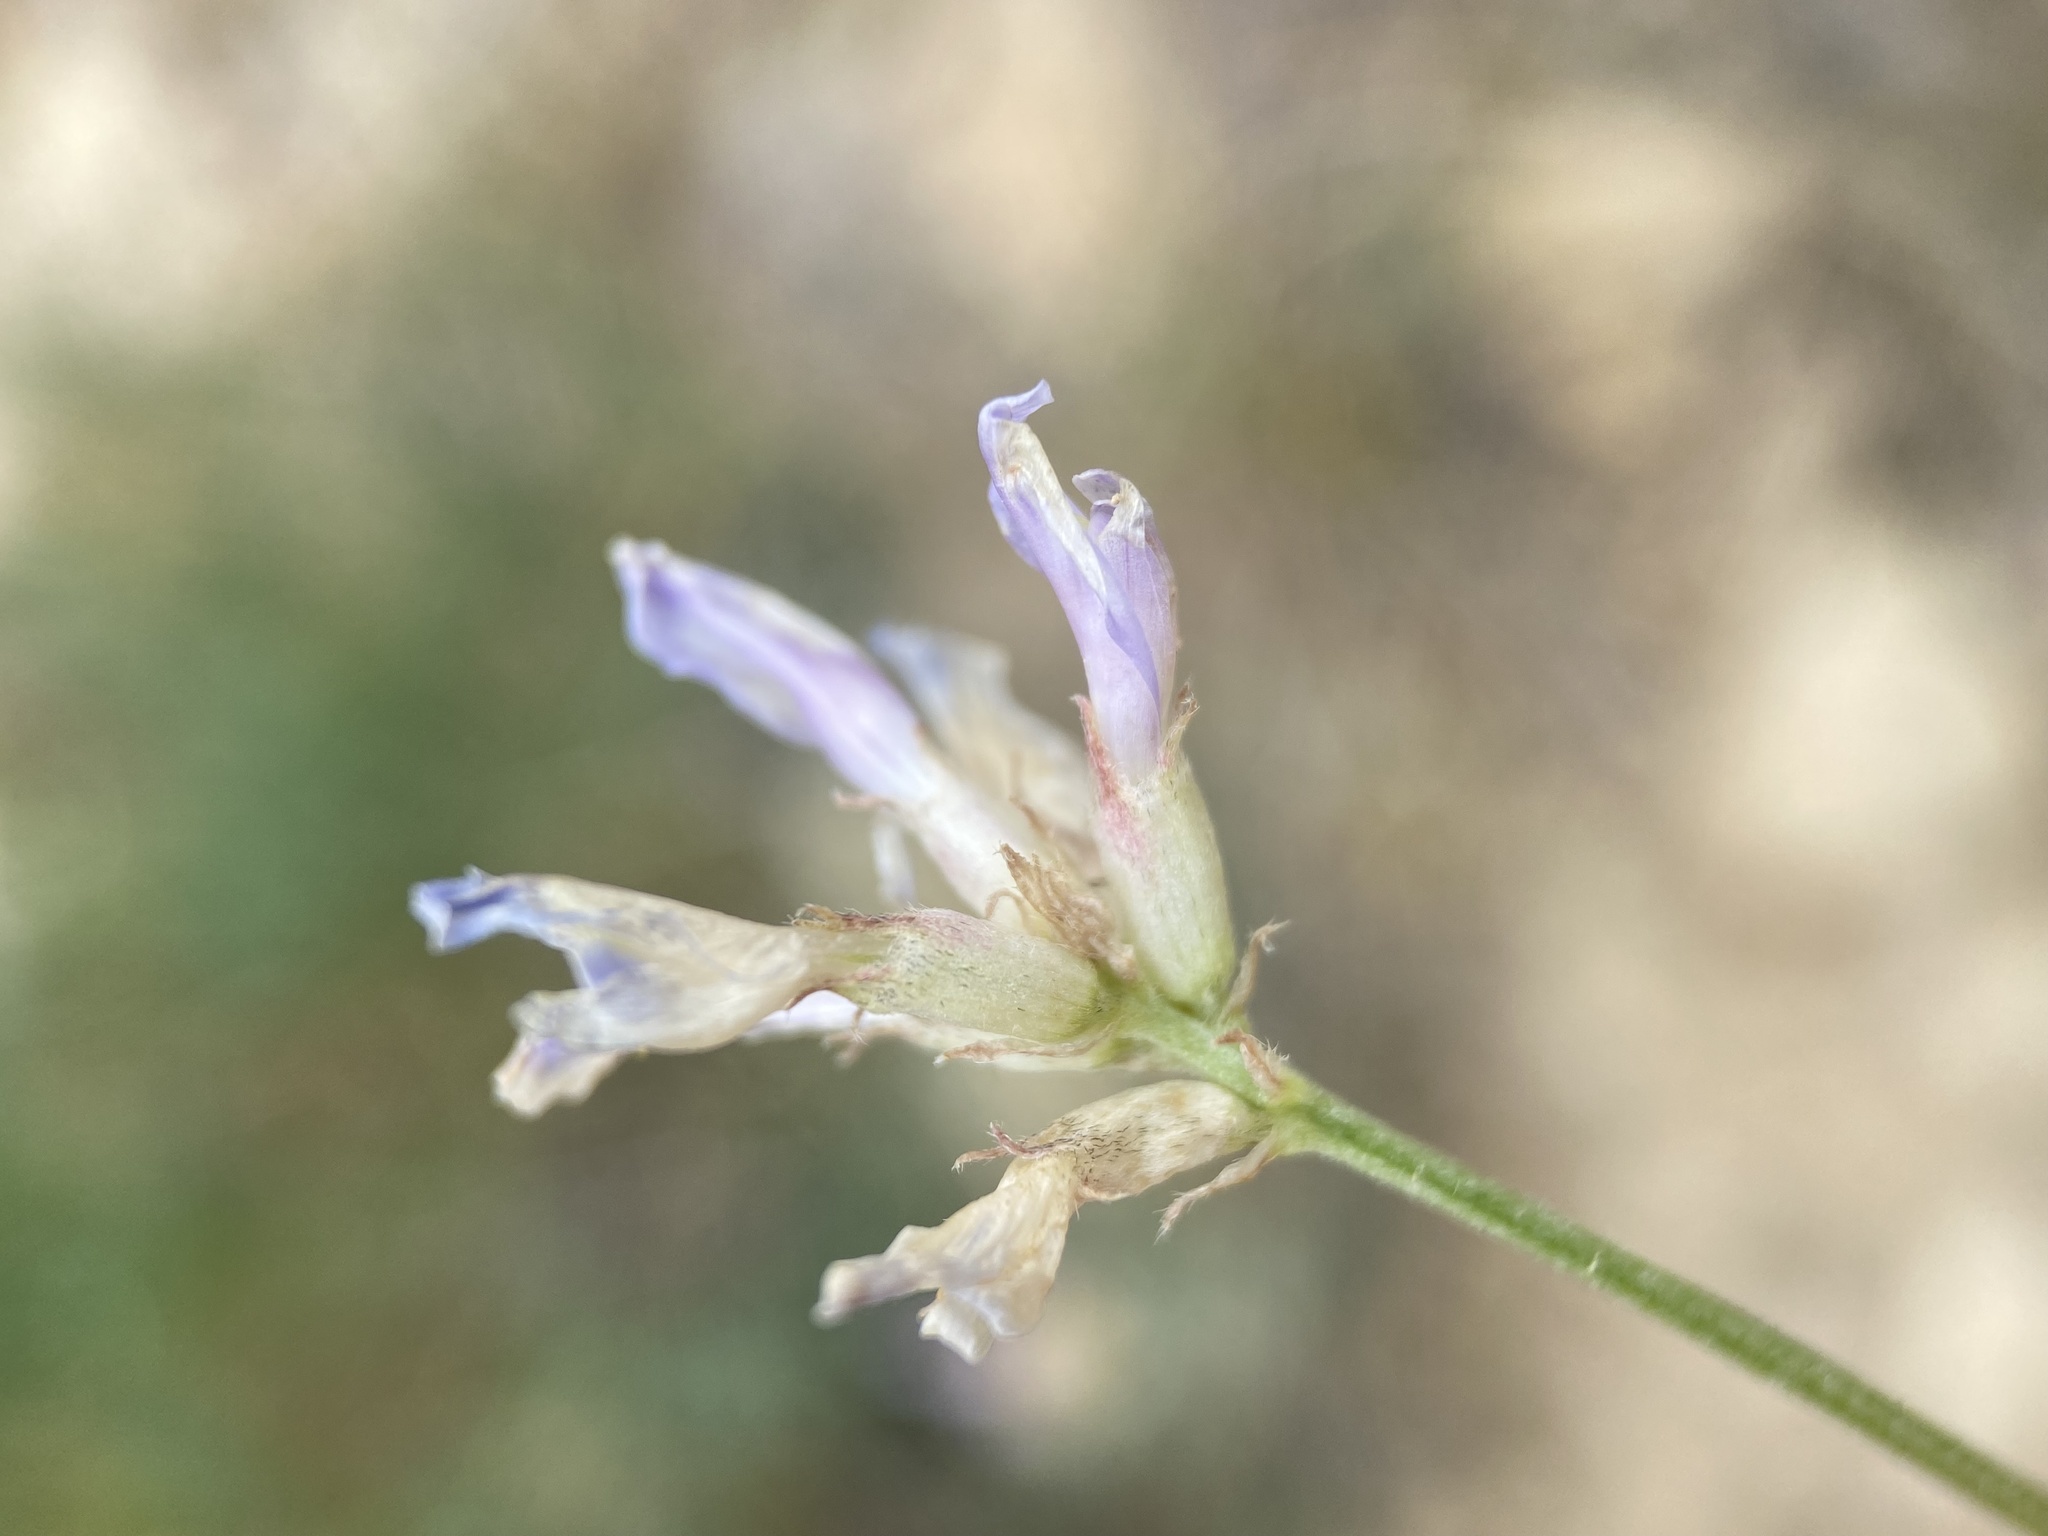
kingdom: Plantae
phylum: Tracheophyta
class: Magnoliopsida
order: Fabales
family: Fabaceae
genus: Astragalus
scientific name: Astragalus laxmannii
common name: Laxmann's milk-vetch
